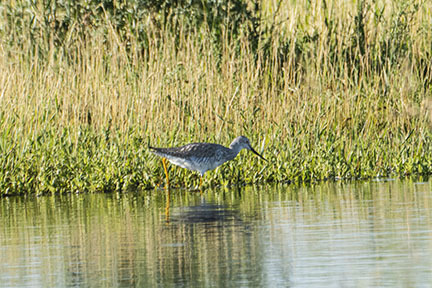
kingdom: Animalia
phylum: Chordata
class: Aves
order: Charadriiformes
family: Scolopacidae
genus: Tringa
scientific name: Tringa melanoleuca
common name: Greater yellowlegs
